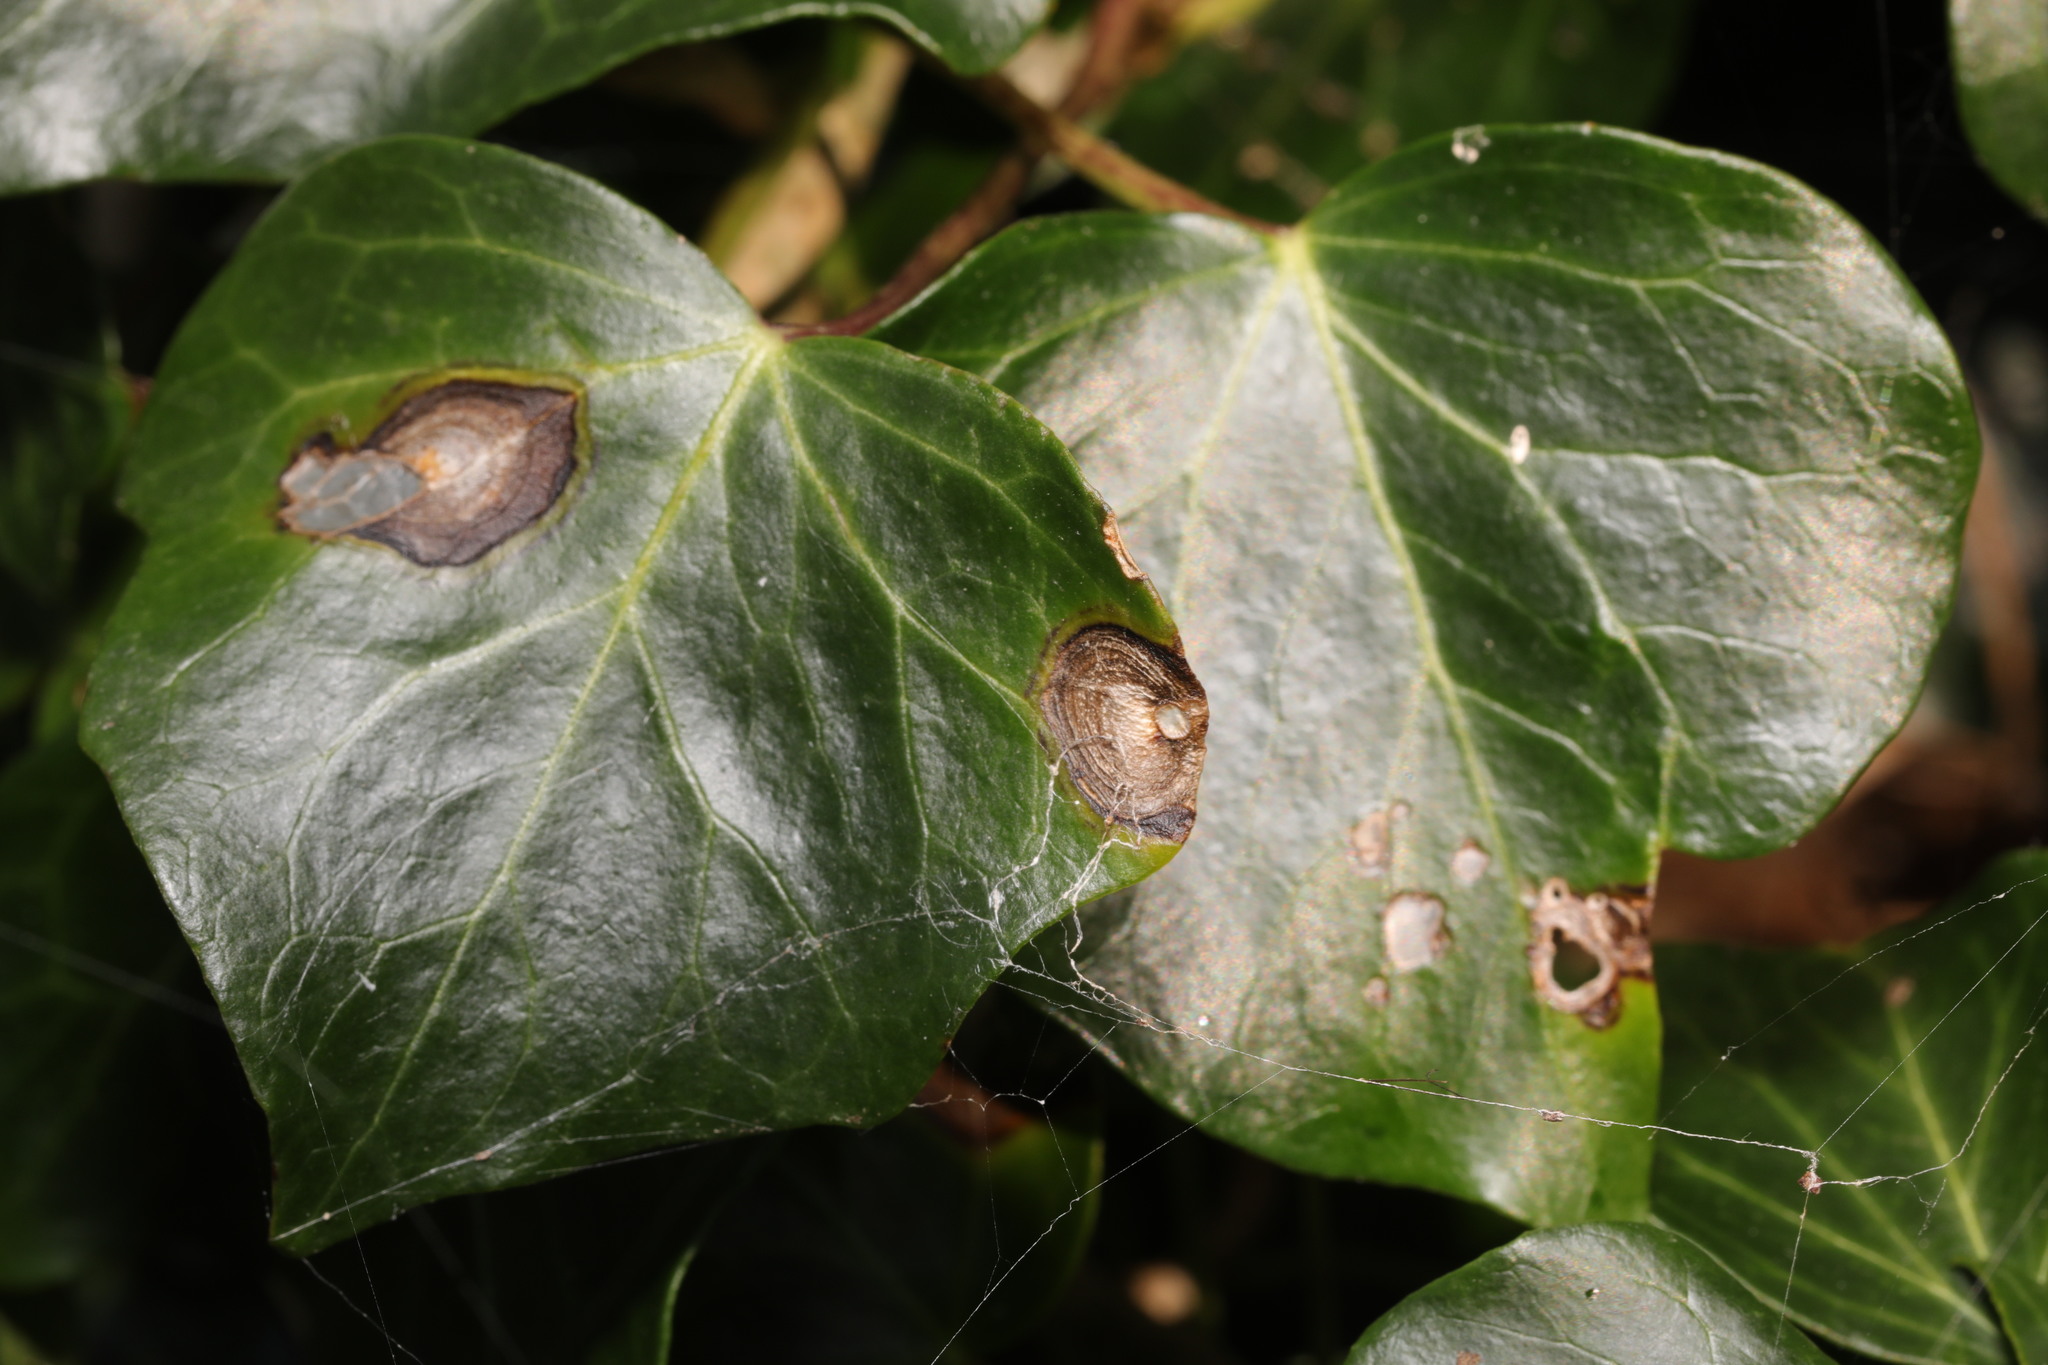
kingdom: Plantae
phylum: Tracheophyta
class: Magnoliopsida
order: Apiales
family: Araliaceae
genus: Hedera
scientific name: Hedera helix
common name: Ivy
